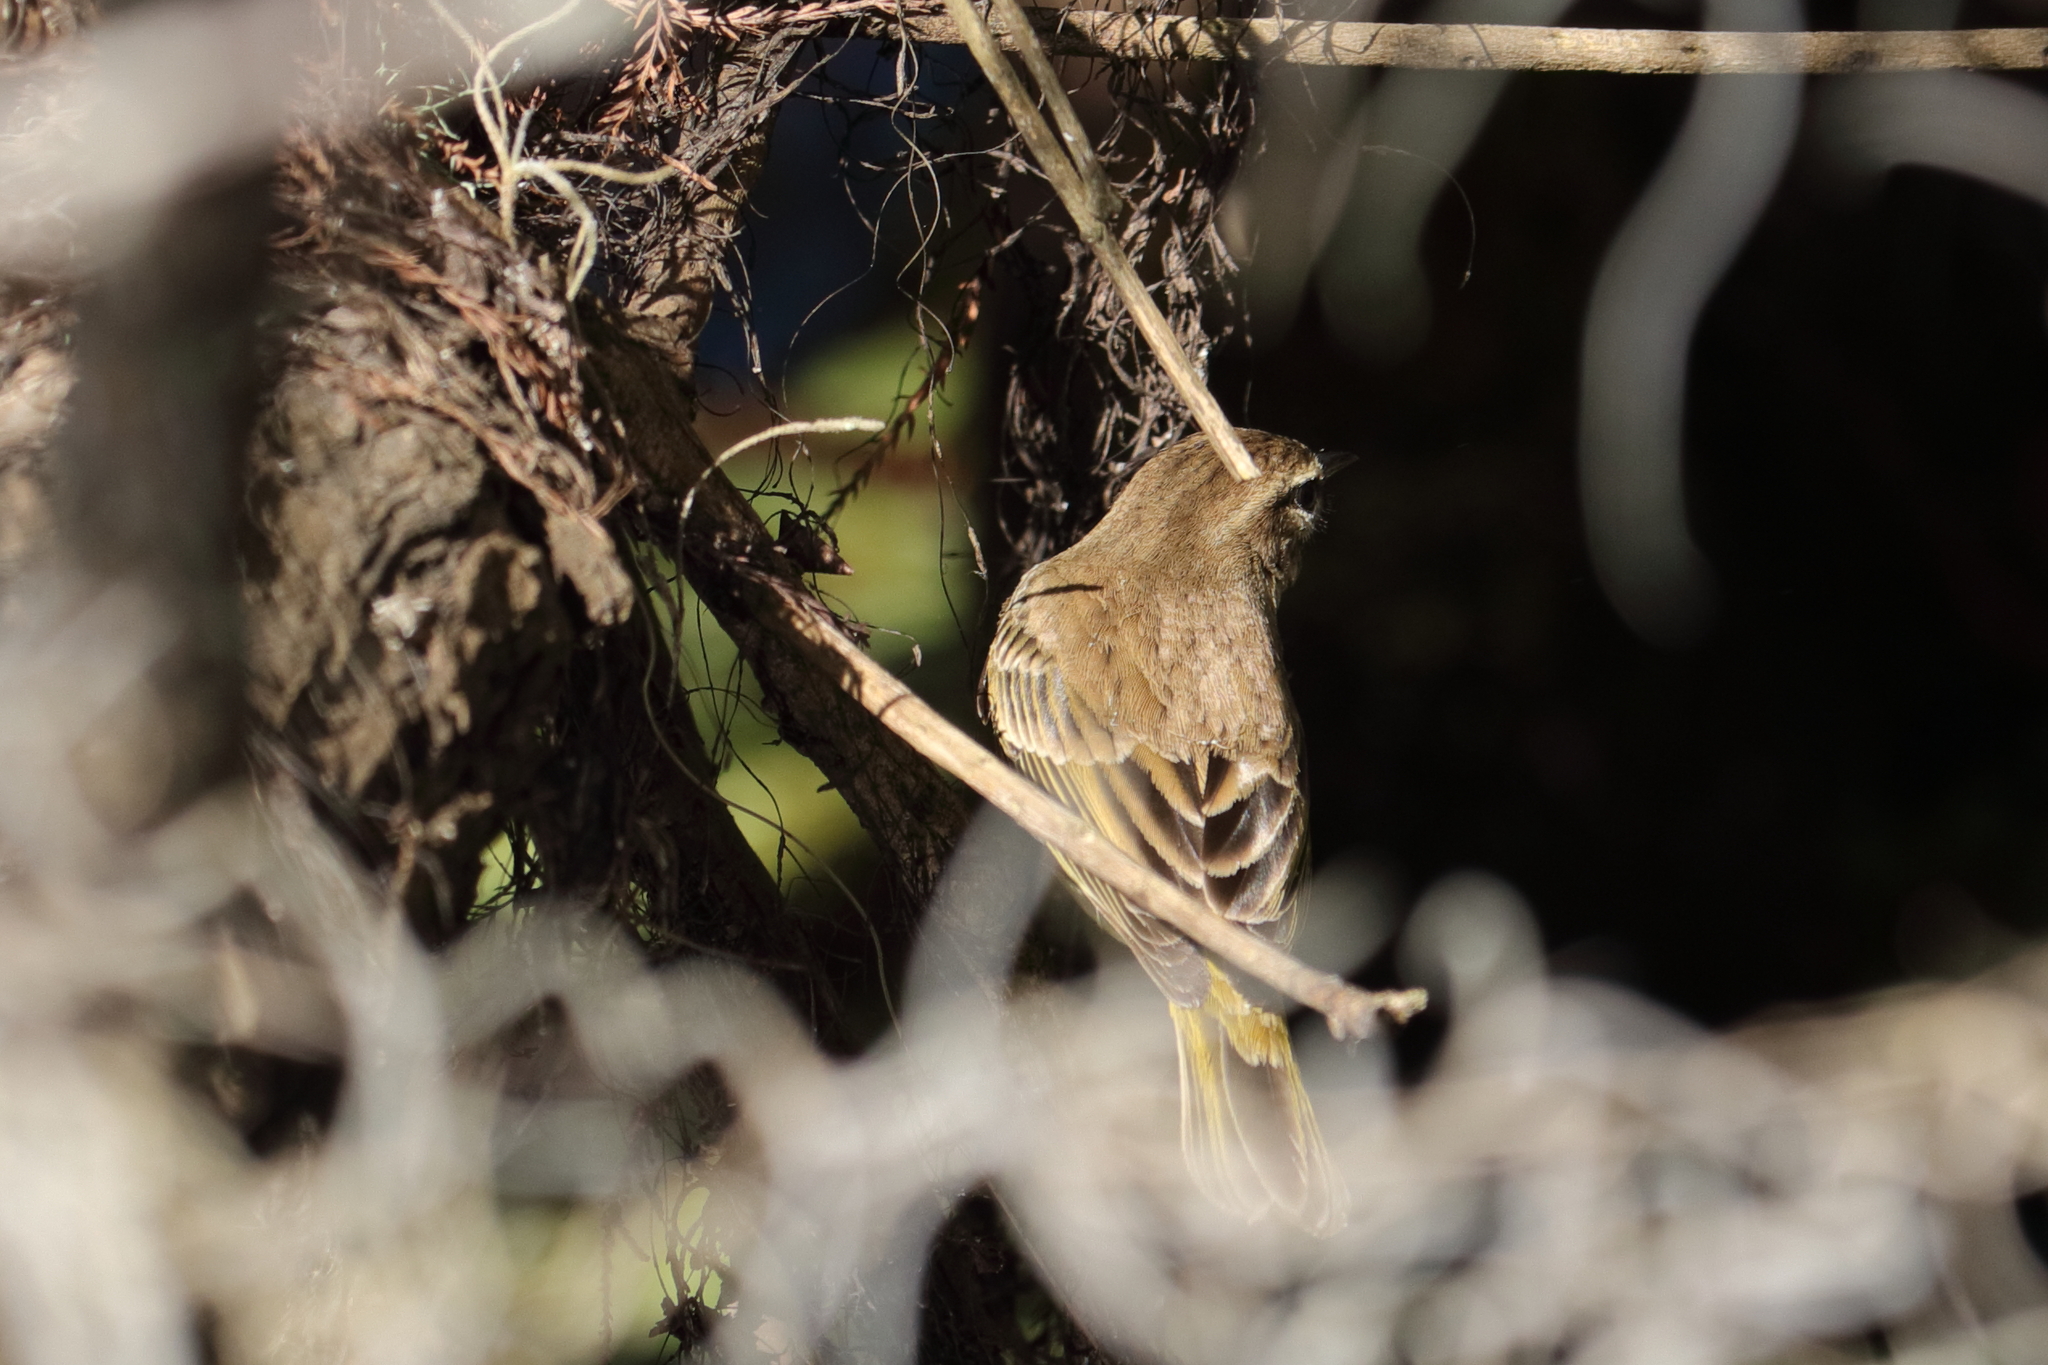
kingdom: Animalia
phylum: Chordata
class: Aves
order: Passeriformes
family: Parulidae
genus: Setophaga
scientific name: Setophaga palmarum
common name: Palm warbler
